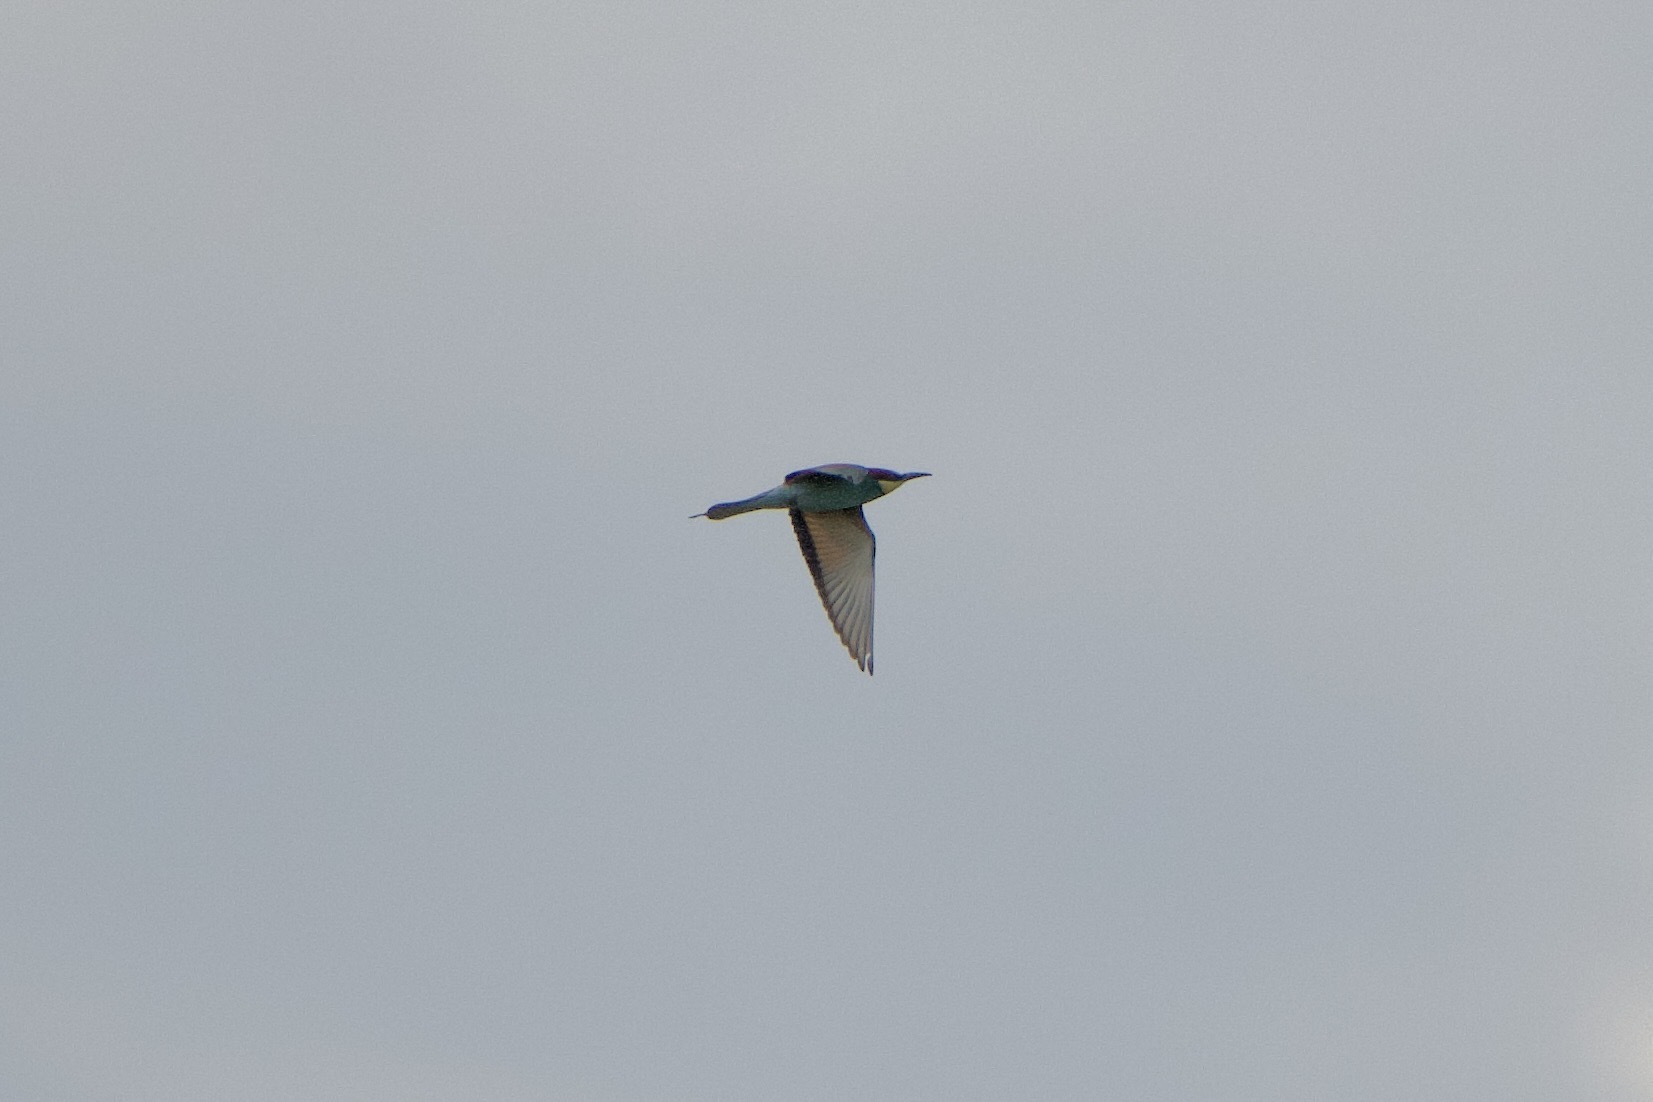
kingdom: Animalia
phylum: Chordata
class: Aves
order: Coraciiformes
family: Meropidae
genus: Merops
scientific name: Merops apiaster
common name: European bee-eater
